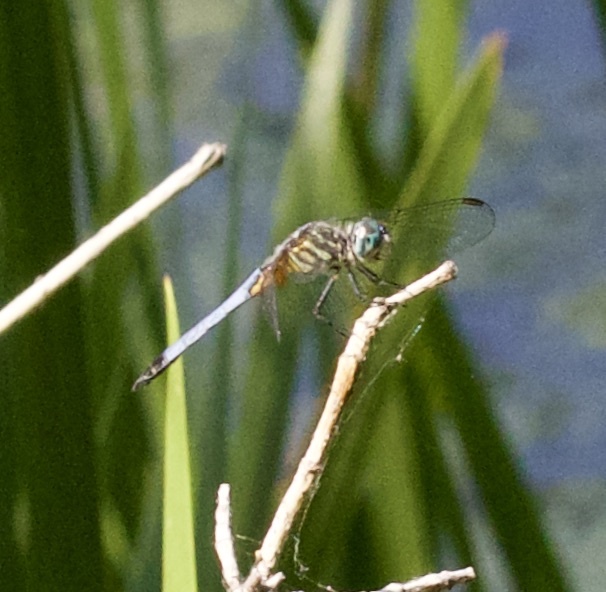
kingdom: Animalia
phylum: Arthropoda
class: Insecta
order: Odonata
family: Libellulidae
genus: Pachydiplax
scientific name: Pachydiplax longipennis
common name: Blue dasher
